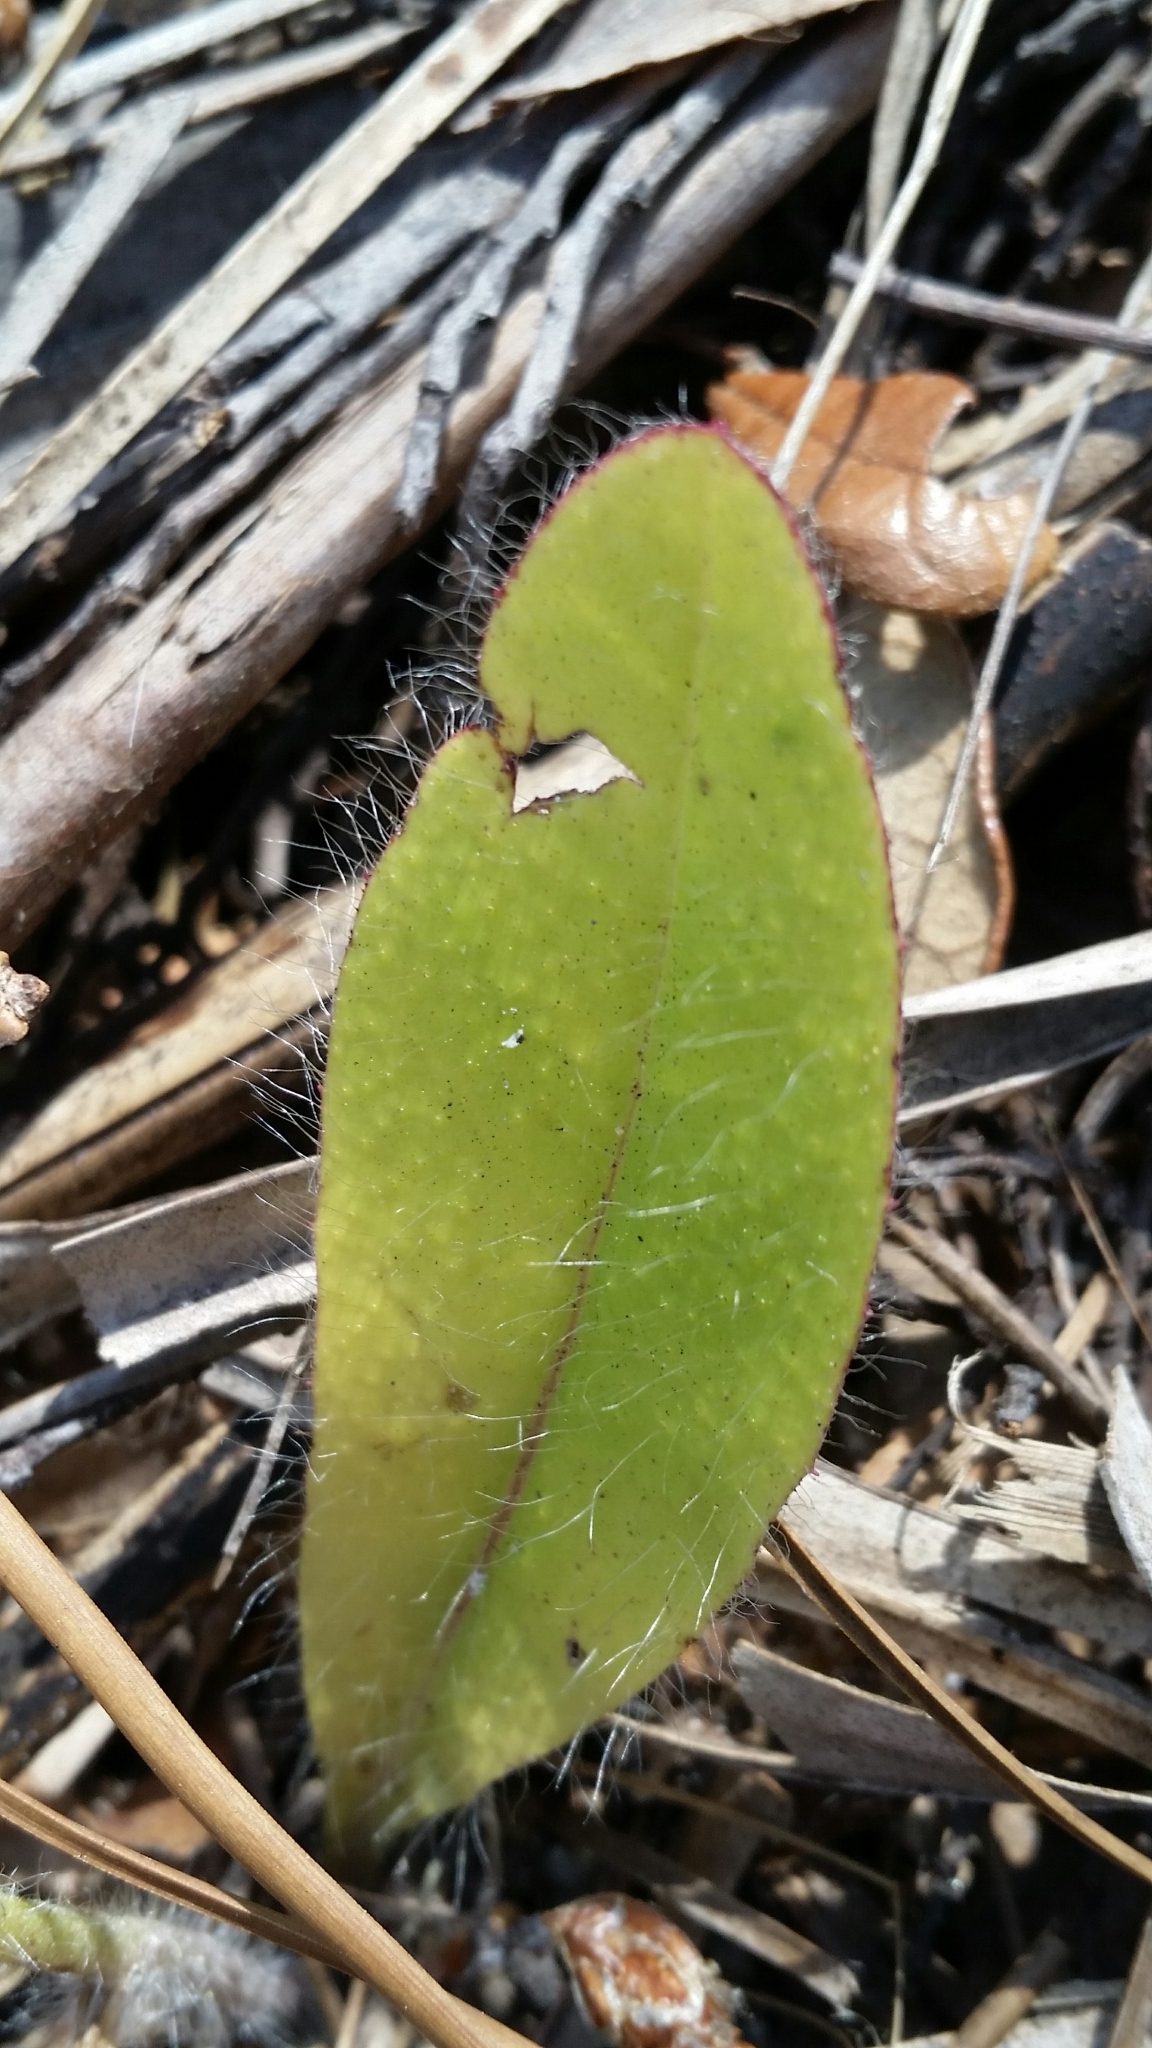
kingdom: Plantae
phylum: Tracheophyta
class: Magnoliopsida
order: Asterales
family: Asteraceae
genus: Hieracium
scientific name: Hieracium megacephalum
